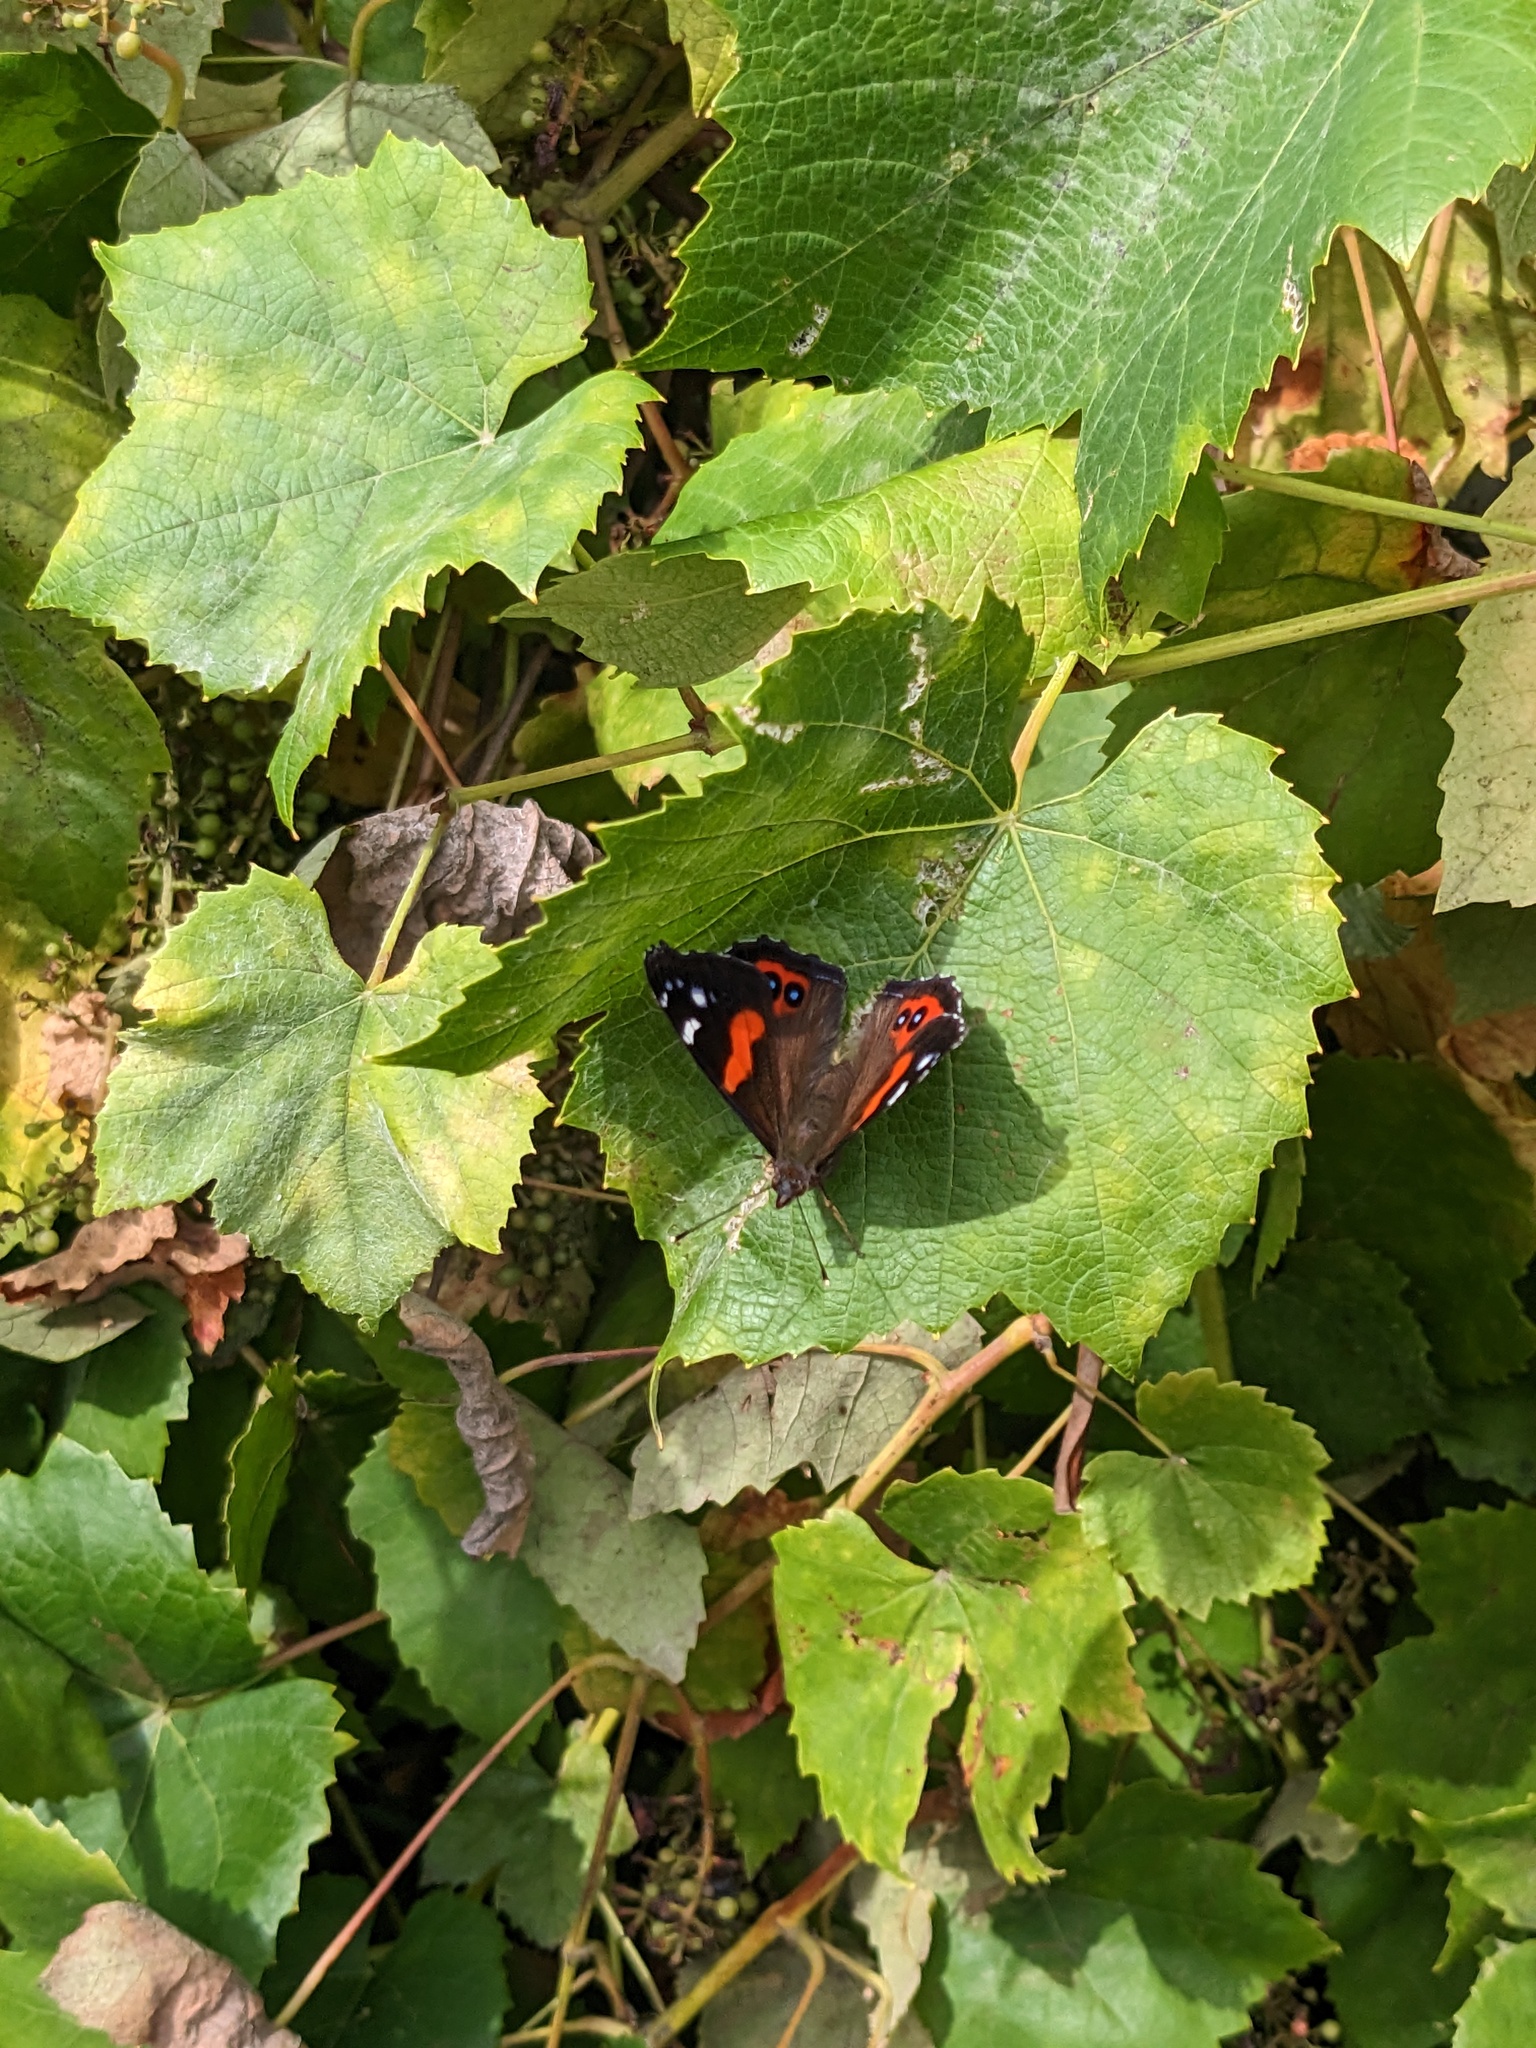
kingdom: Animalia
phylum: Arthropoda
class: Insecta
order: Lepidoptera
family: Nymphalidae
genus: Vanessa
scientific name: Vanessa gonerilla
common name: New zealand red admiral
